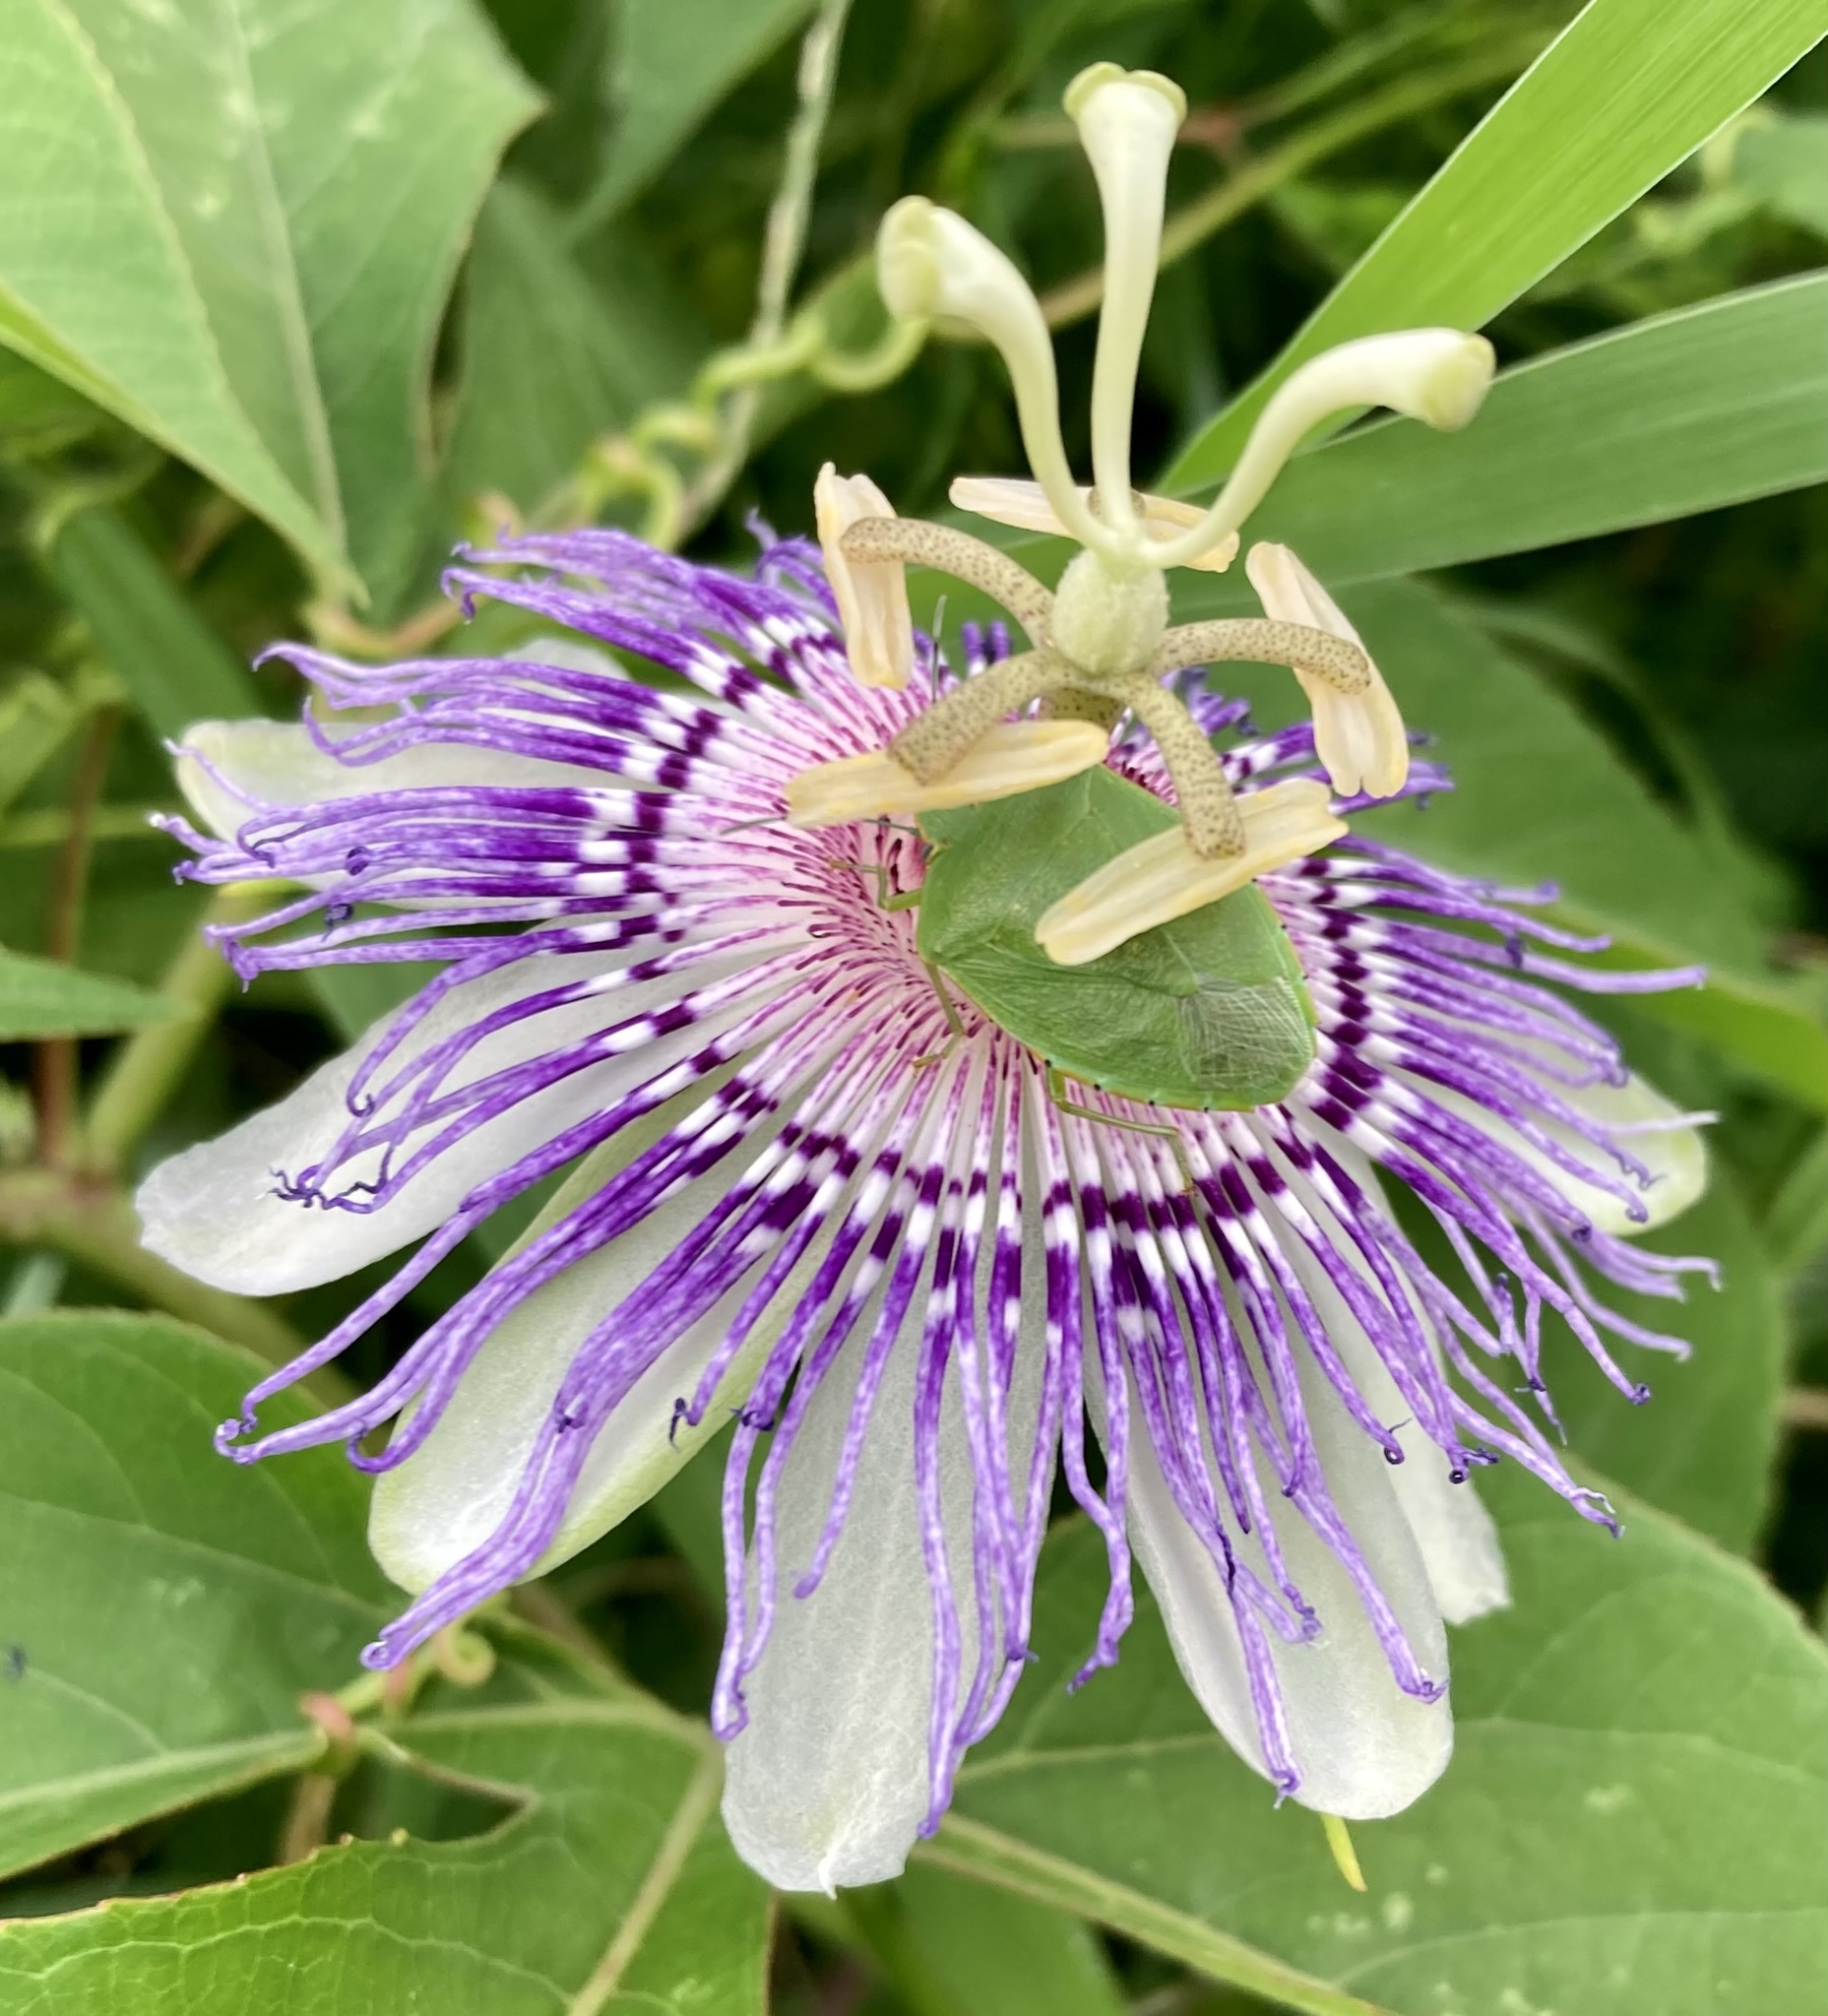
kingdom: Plantae
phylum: Tracheophyta
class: Magnoliopsida
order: Malpighiales
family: Passifloraceae
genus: Passiflora
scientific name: Passiflora incarnata
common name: Apricot-vine
